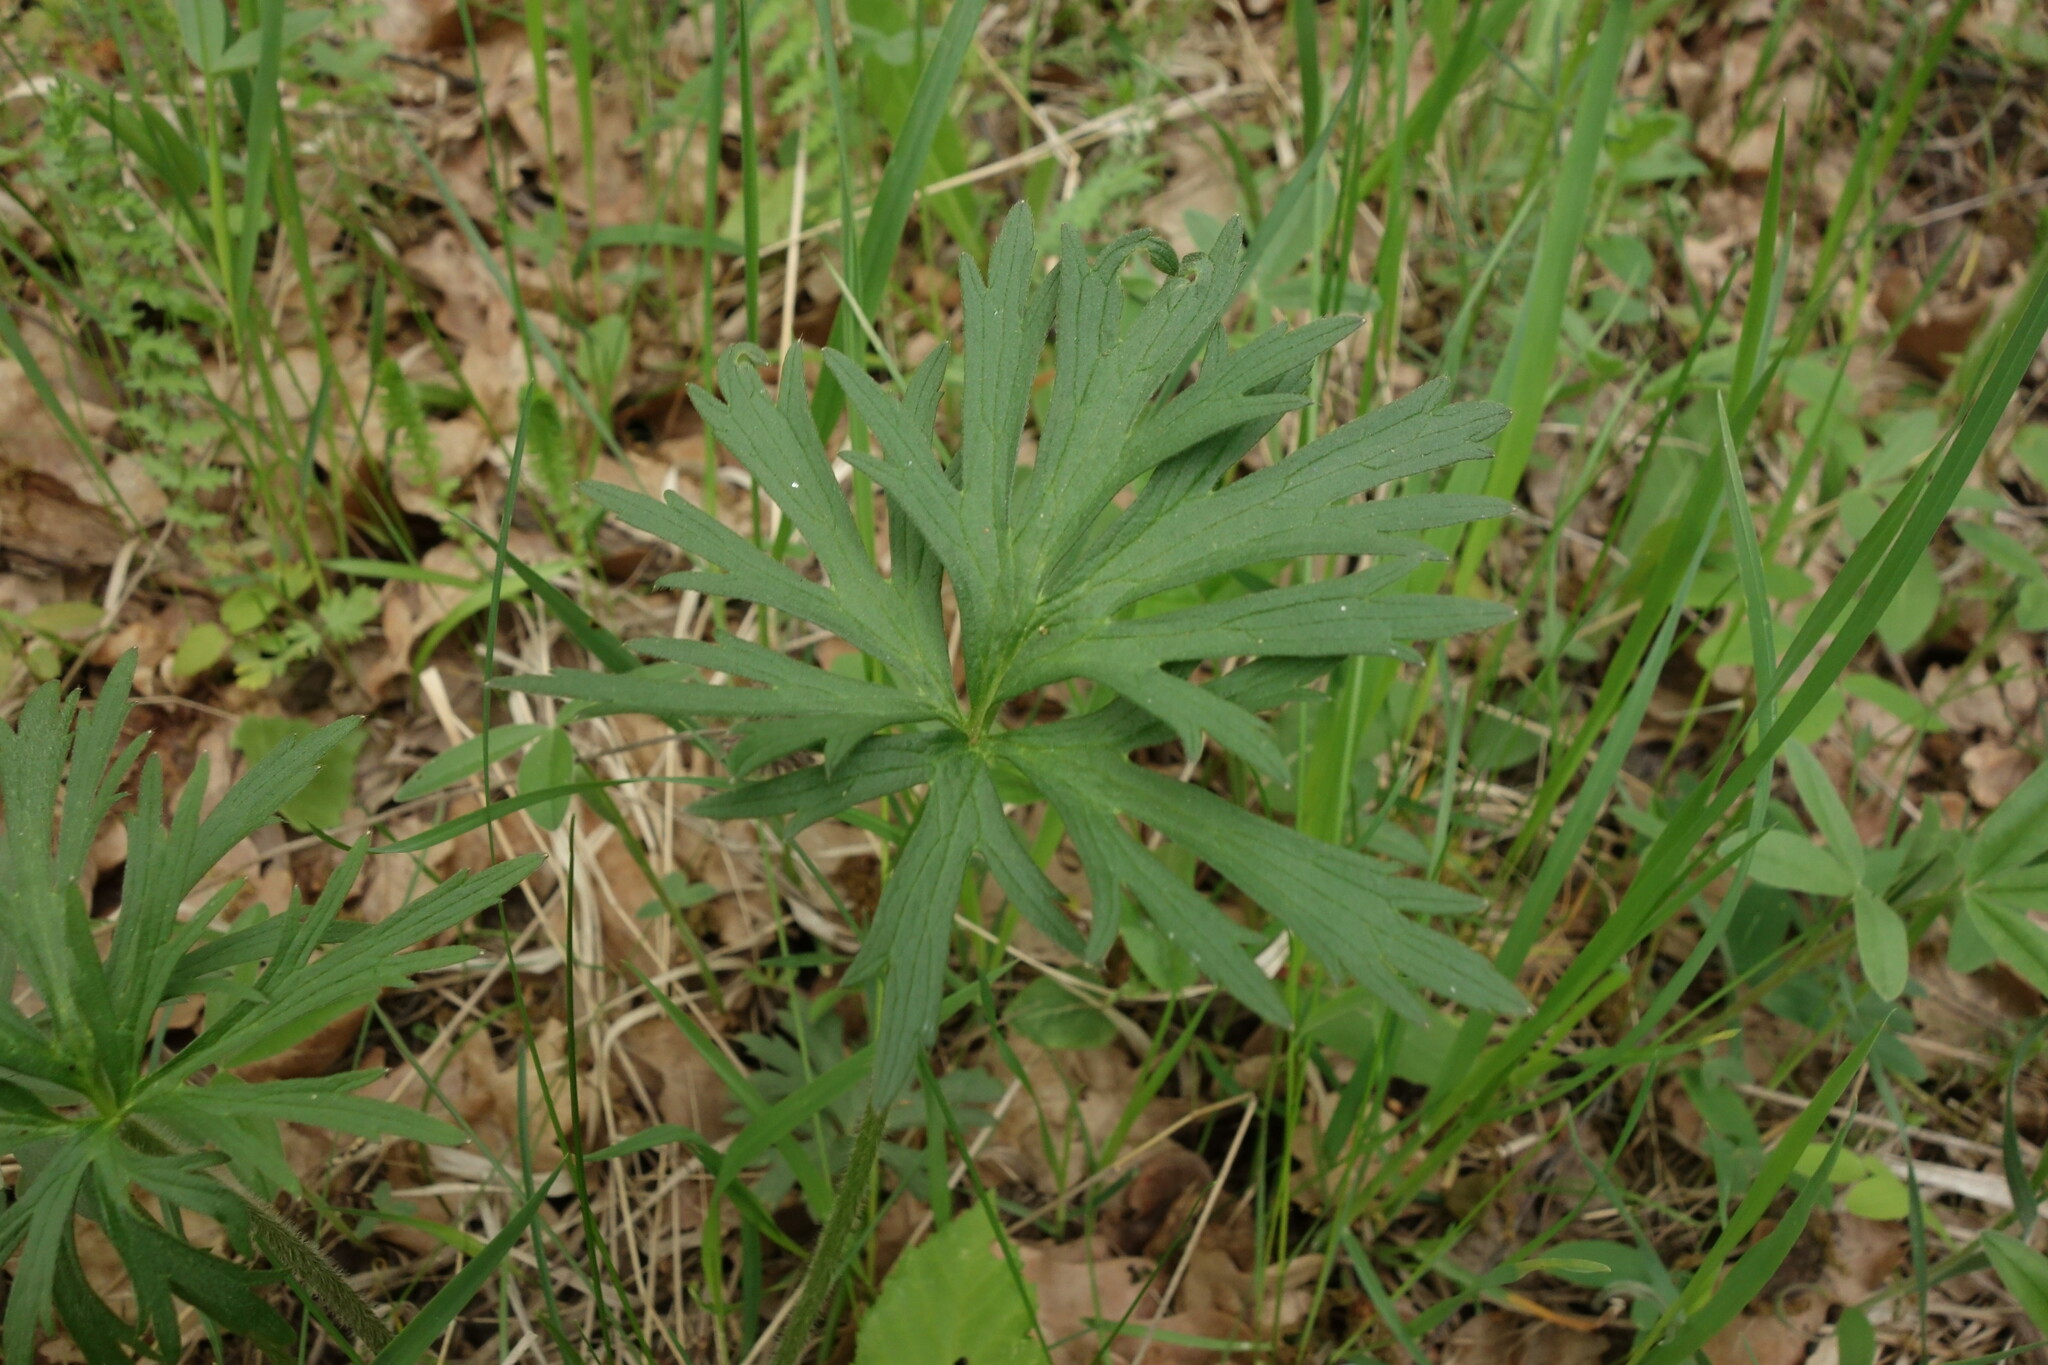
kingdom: Plantae
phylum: Tracheophyta
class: Magnoliopsida
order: Ranunculales
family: Ranunculaceae
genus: Ranunculus
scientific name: Ranunculus polyanthemos
